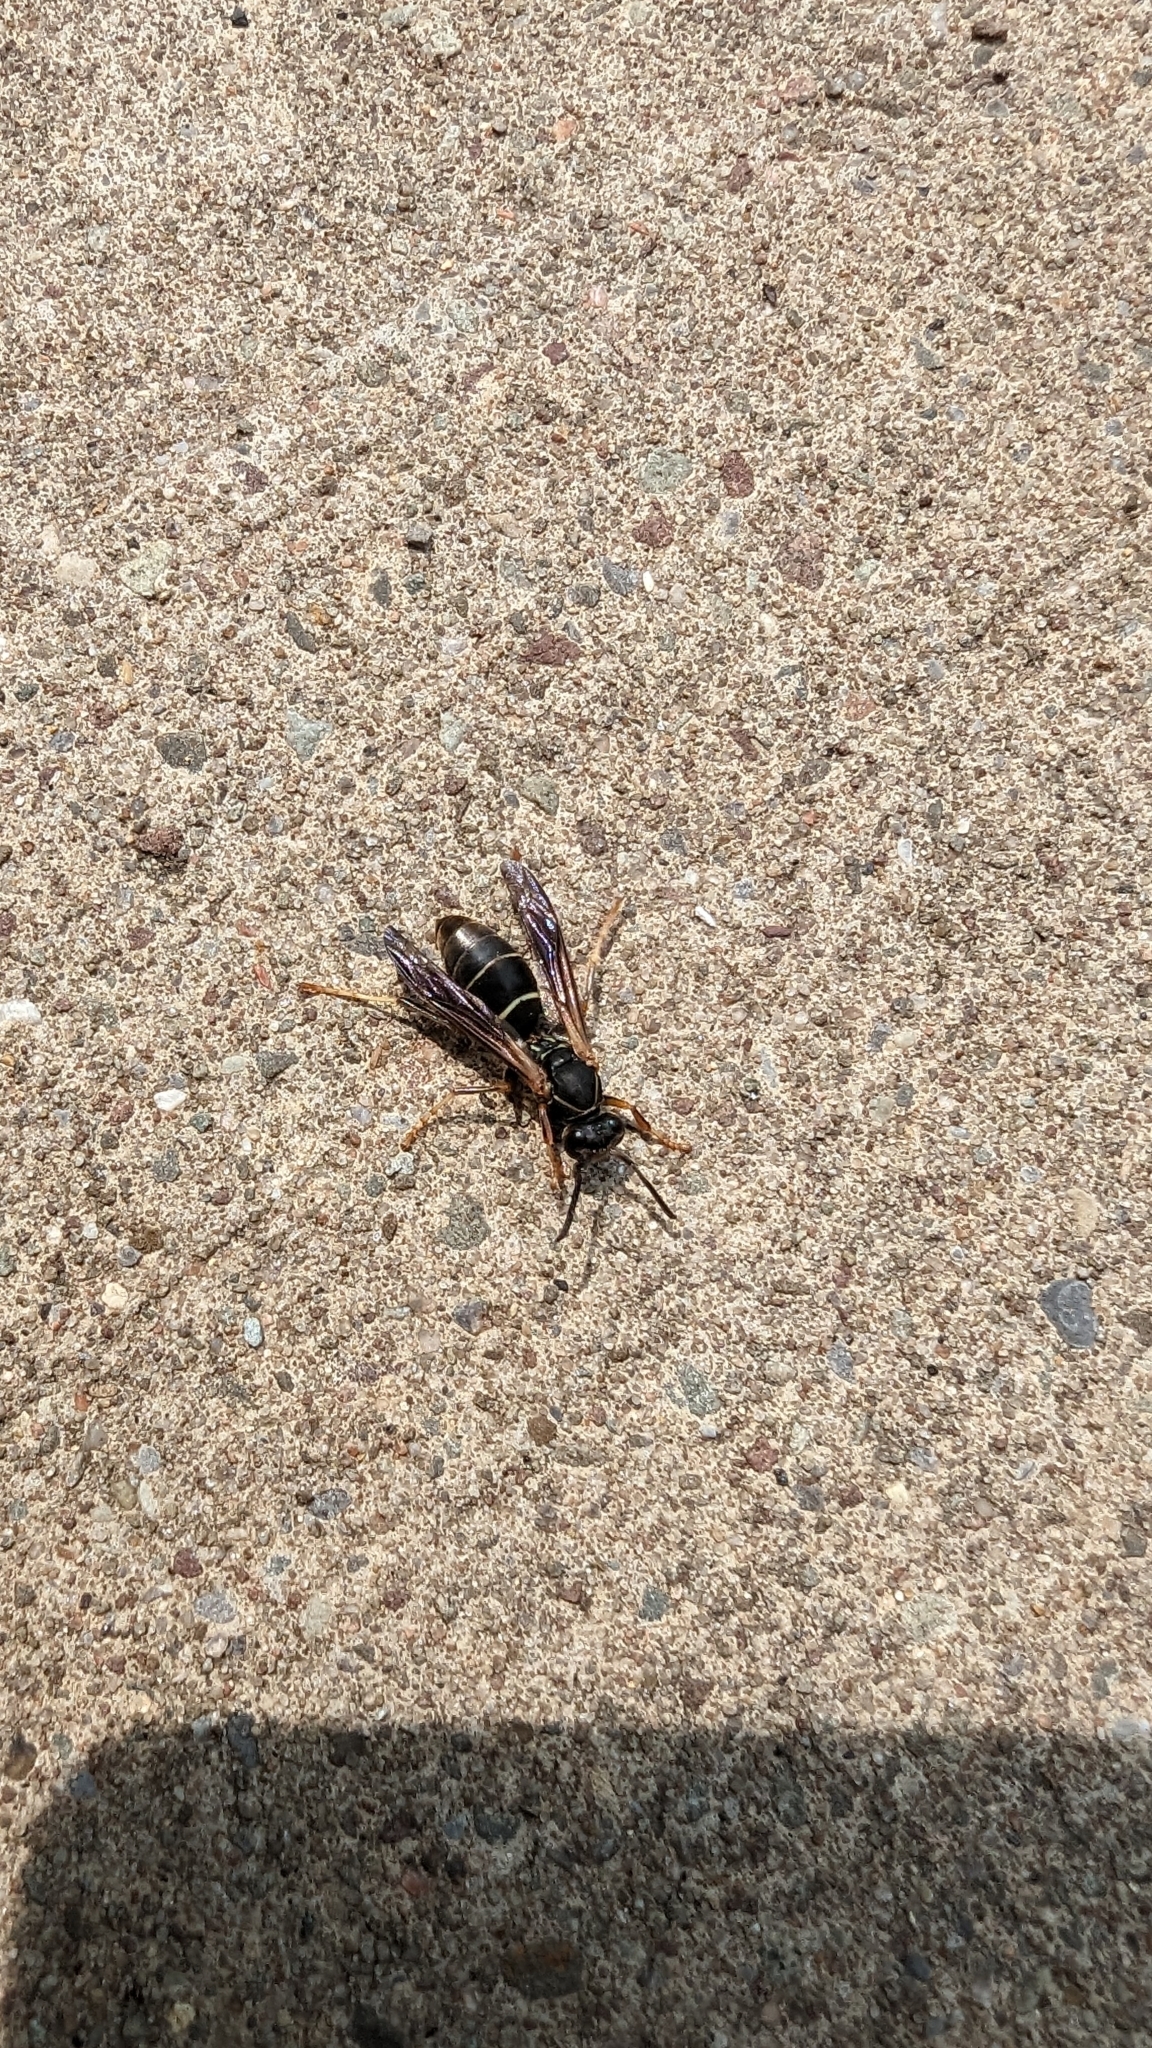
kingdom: Animalia
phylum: Arthropoda
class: Insecta
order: Hymenoptera
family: Eumenidae
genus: Polistes
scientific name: Polistes fuscatus
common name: Dark paper wasp
